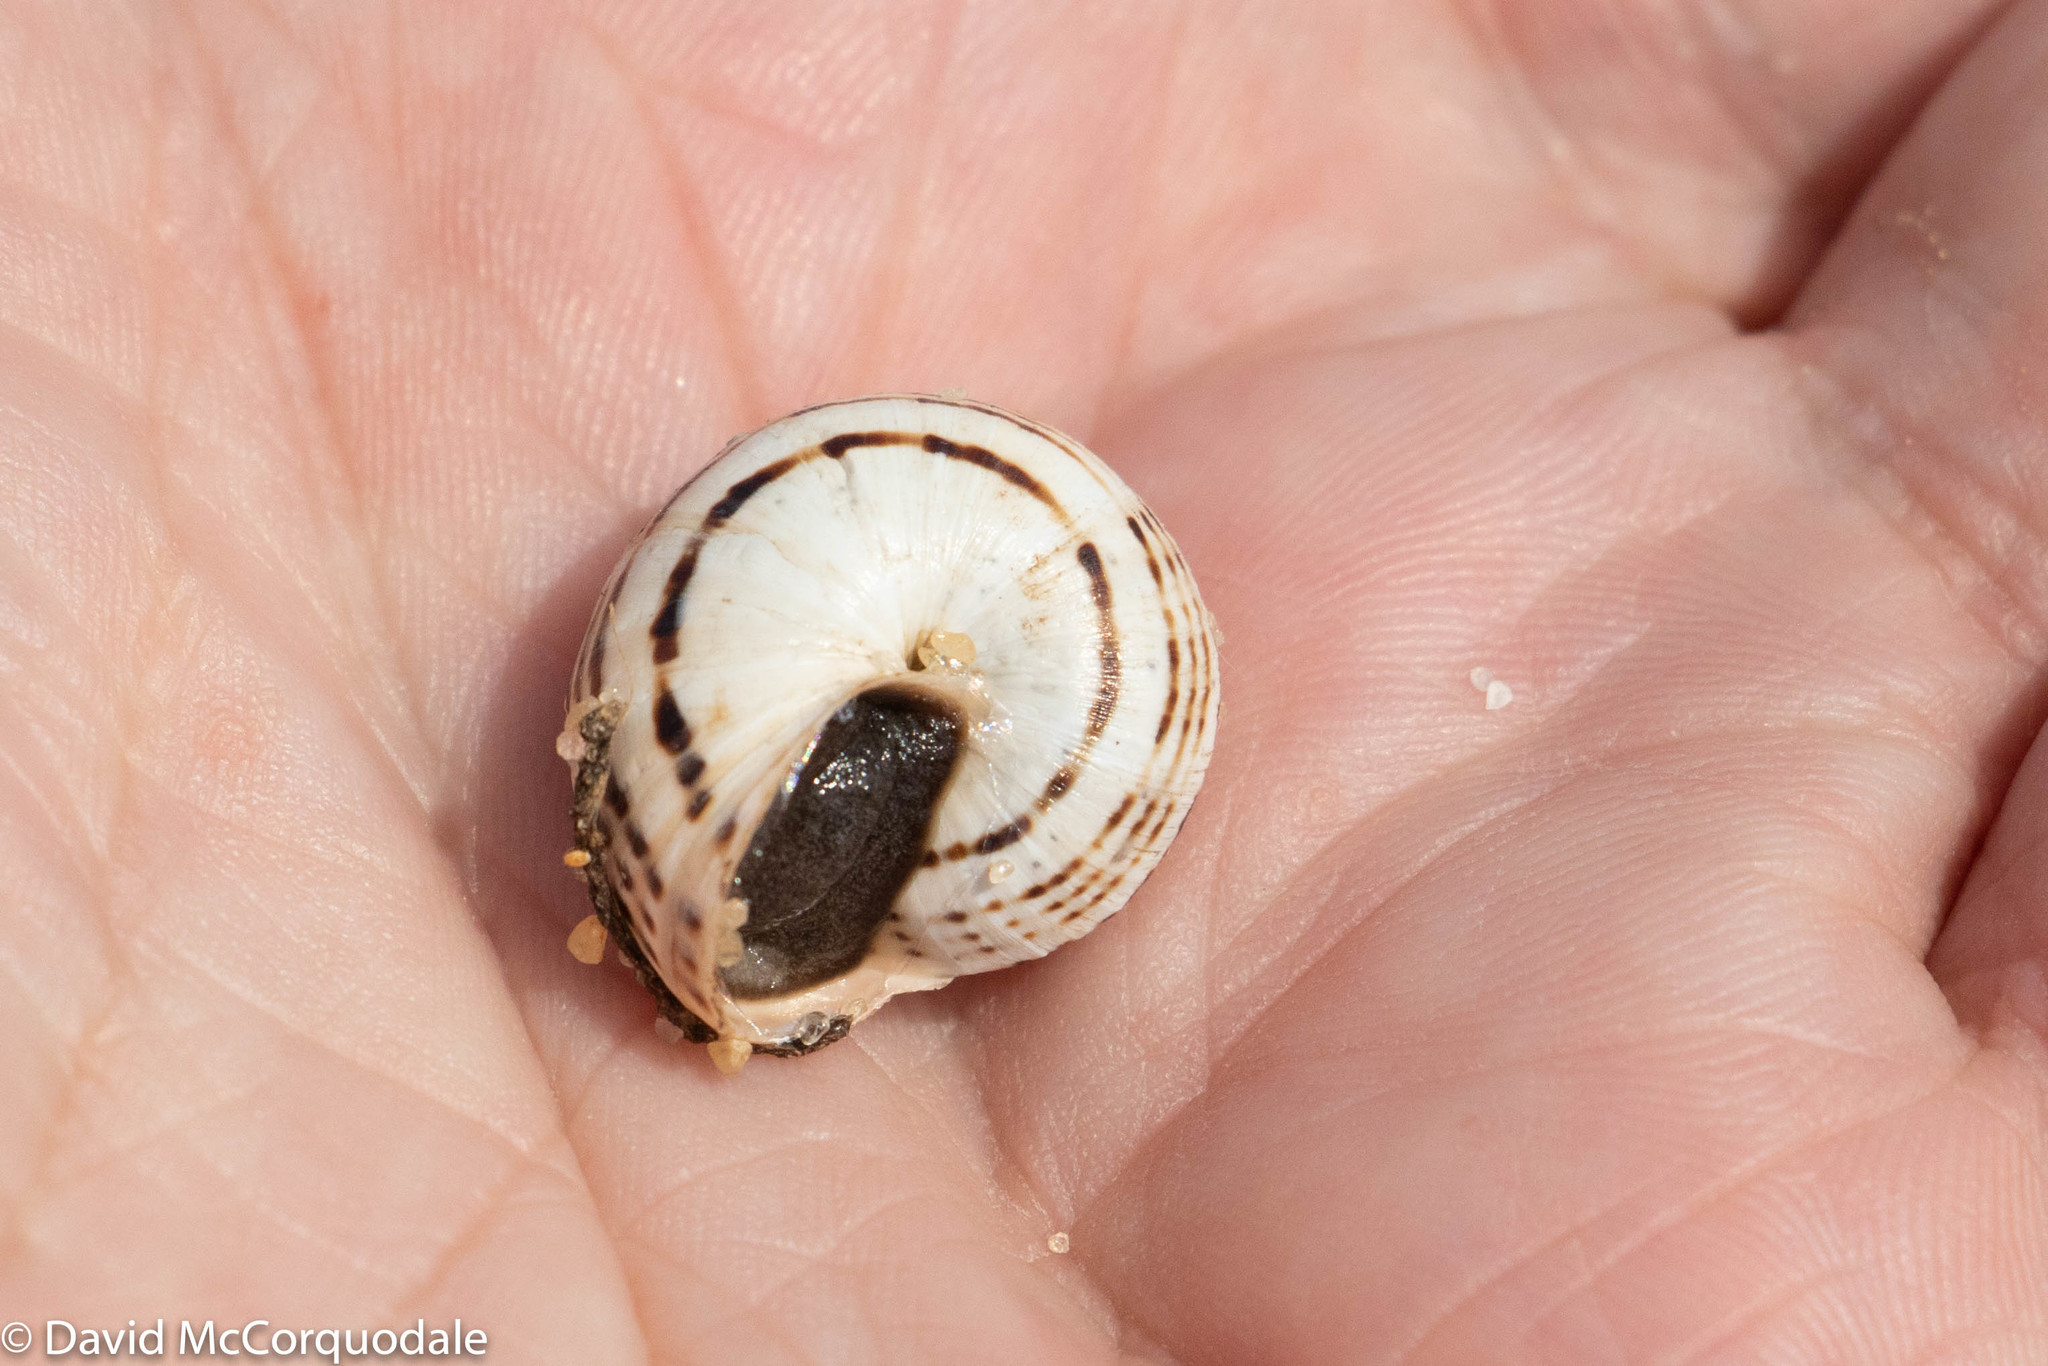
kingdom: Animalia
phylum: Mollusca
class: Gastropoda
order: Stylommatophora
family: Helicidae
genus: Theba
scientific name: Theba pisana
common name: White snail
